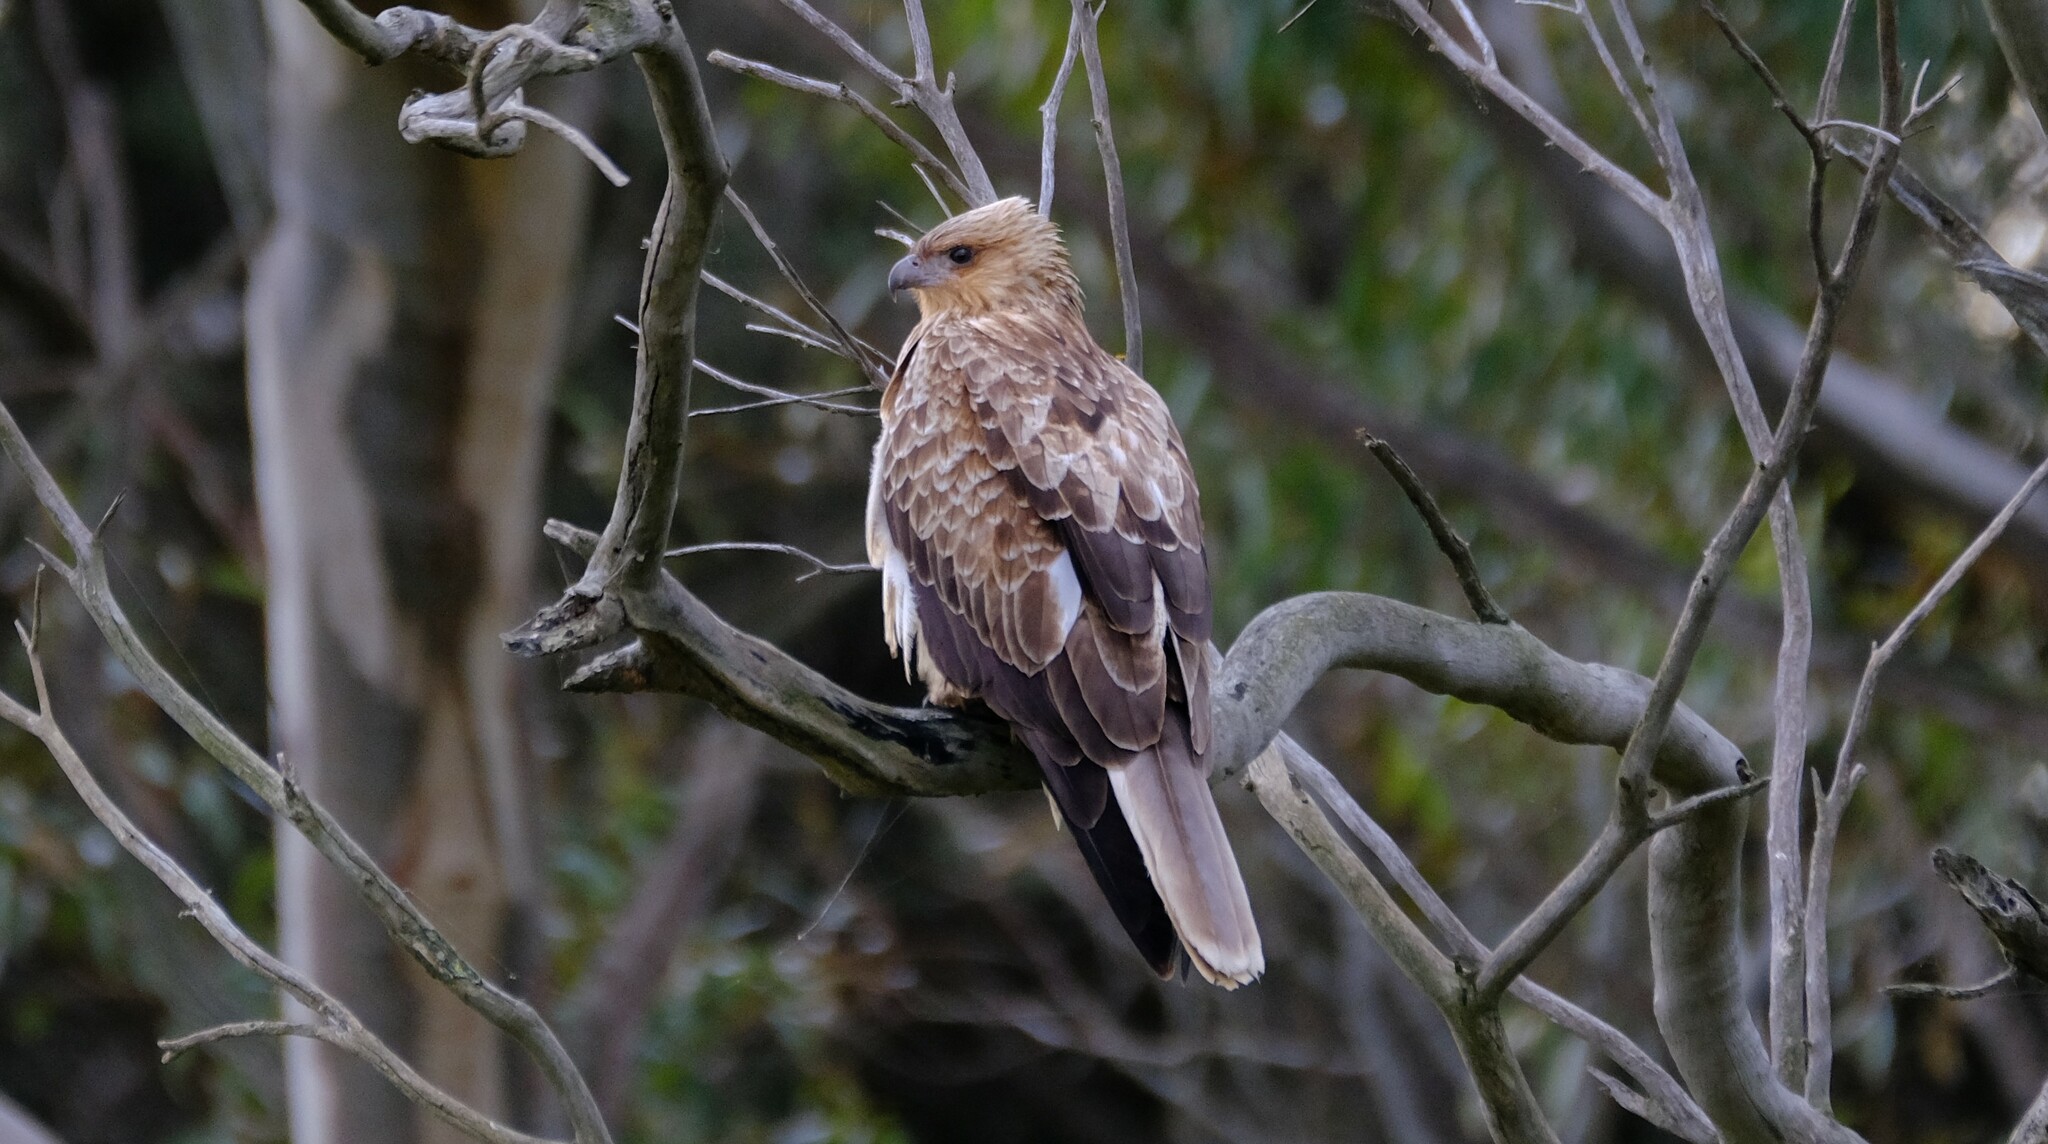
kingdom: Animalia
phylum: Chordata
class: Aves
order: Accipitriformes
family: Accipitridae
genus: Haliastur
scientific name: Haliastur sphenurus
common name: Whistling kite
